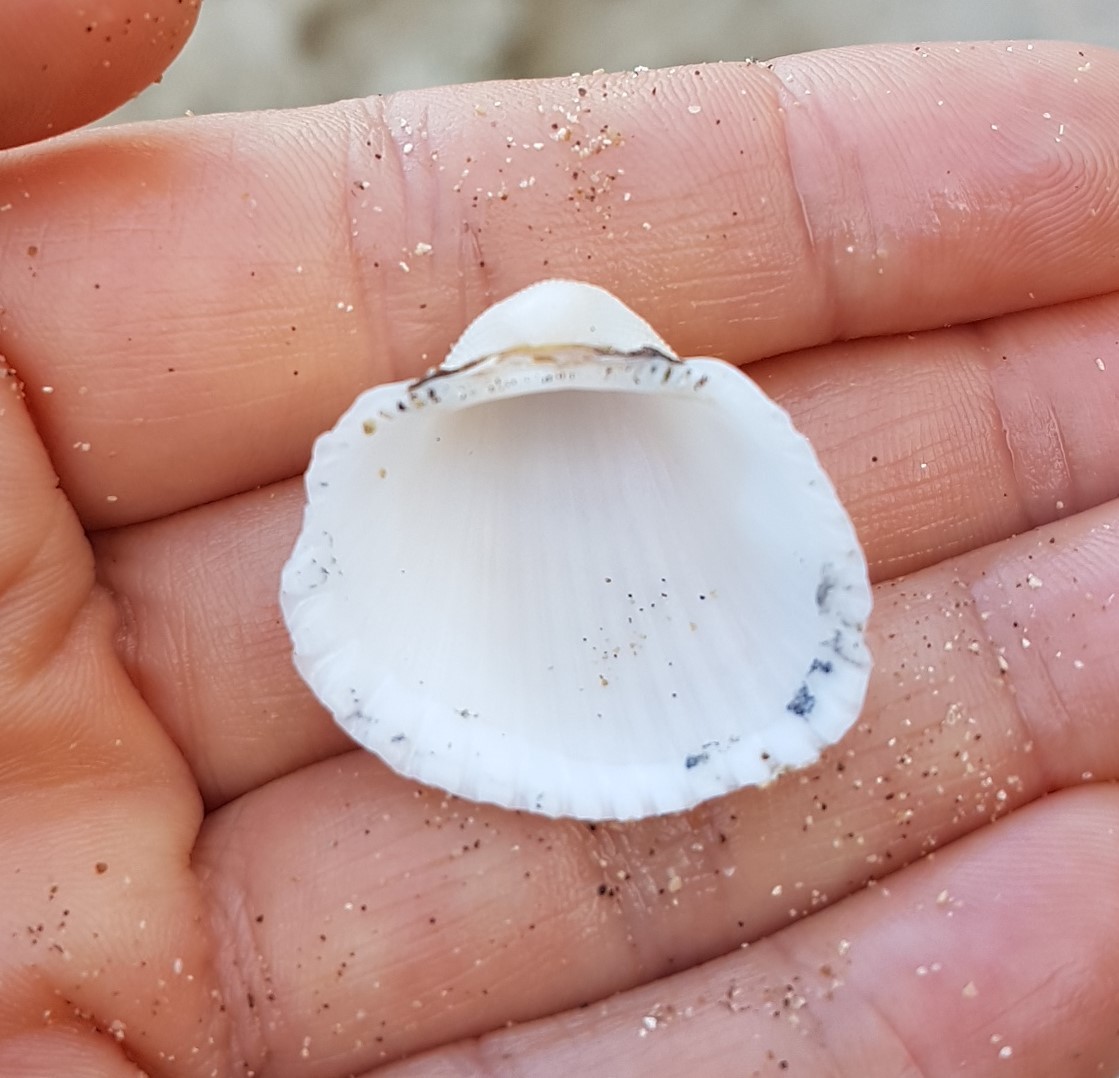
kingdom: Animalia
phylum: Mollusca
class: Bivalvia
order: Arcida
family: Arcidae
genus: Anadara
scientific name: Anadara chemnitzii
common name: Chemnitz's triangular ark
